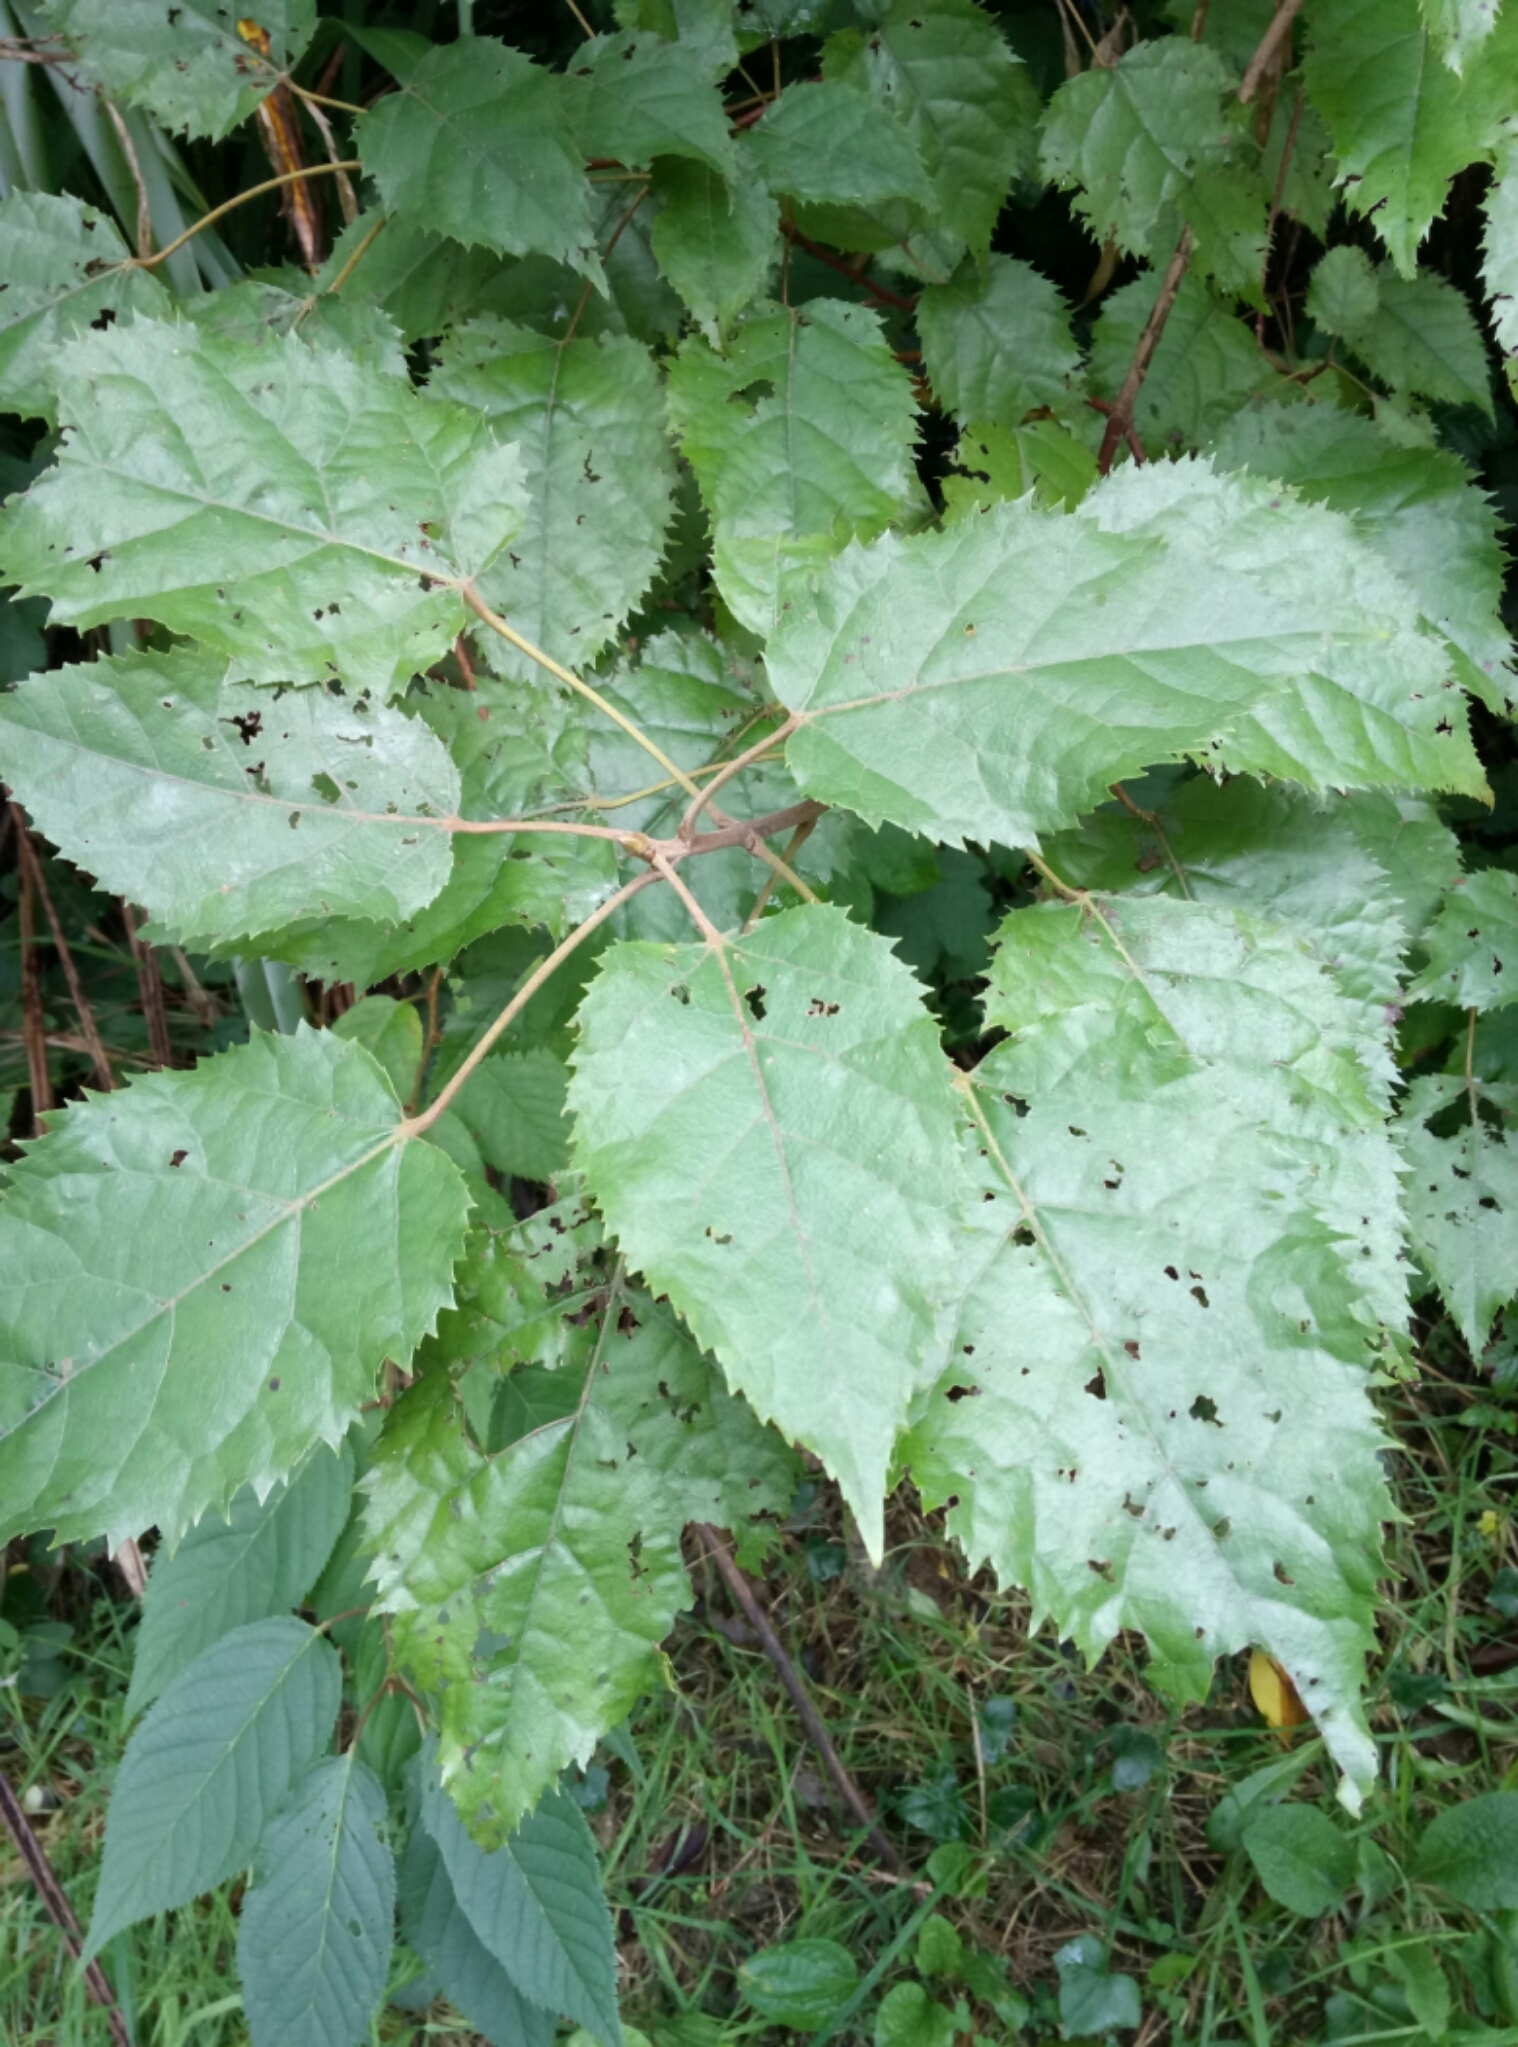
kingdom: Plantae
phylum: Tracheophyta
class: Magnoliopsida
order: Oxalidales
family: Elaeocarpaceae
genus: Aristotelia
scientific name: Aristotelia serrata
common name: New zealand wineberry
